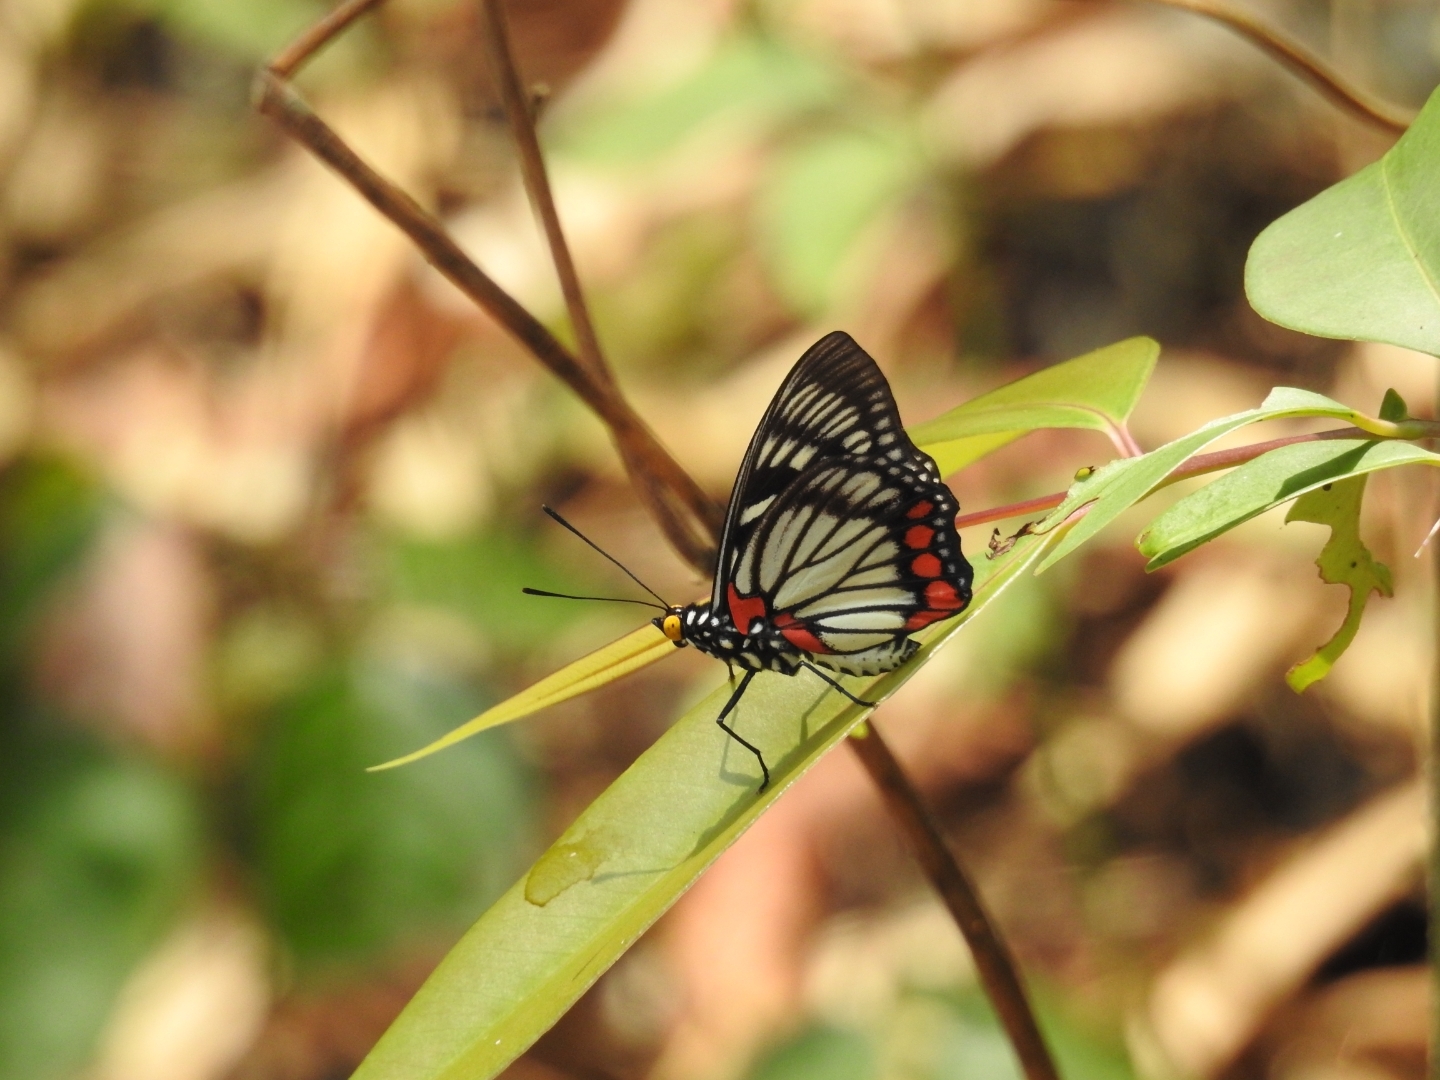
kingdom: Animalia
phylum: Arthropoda
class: Insecta
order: Lepidoptera
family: Nymphalidae
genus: Euripus
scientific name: Euripus consimilis
